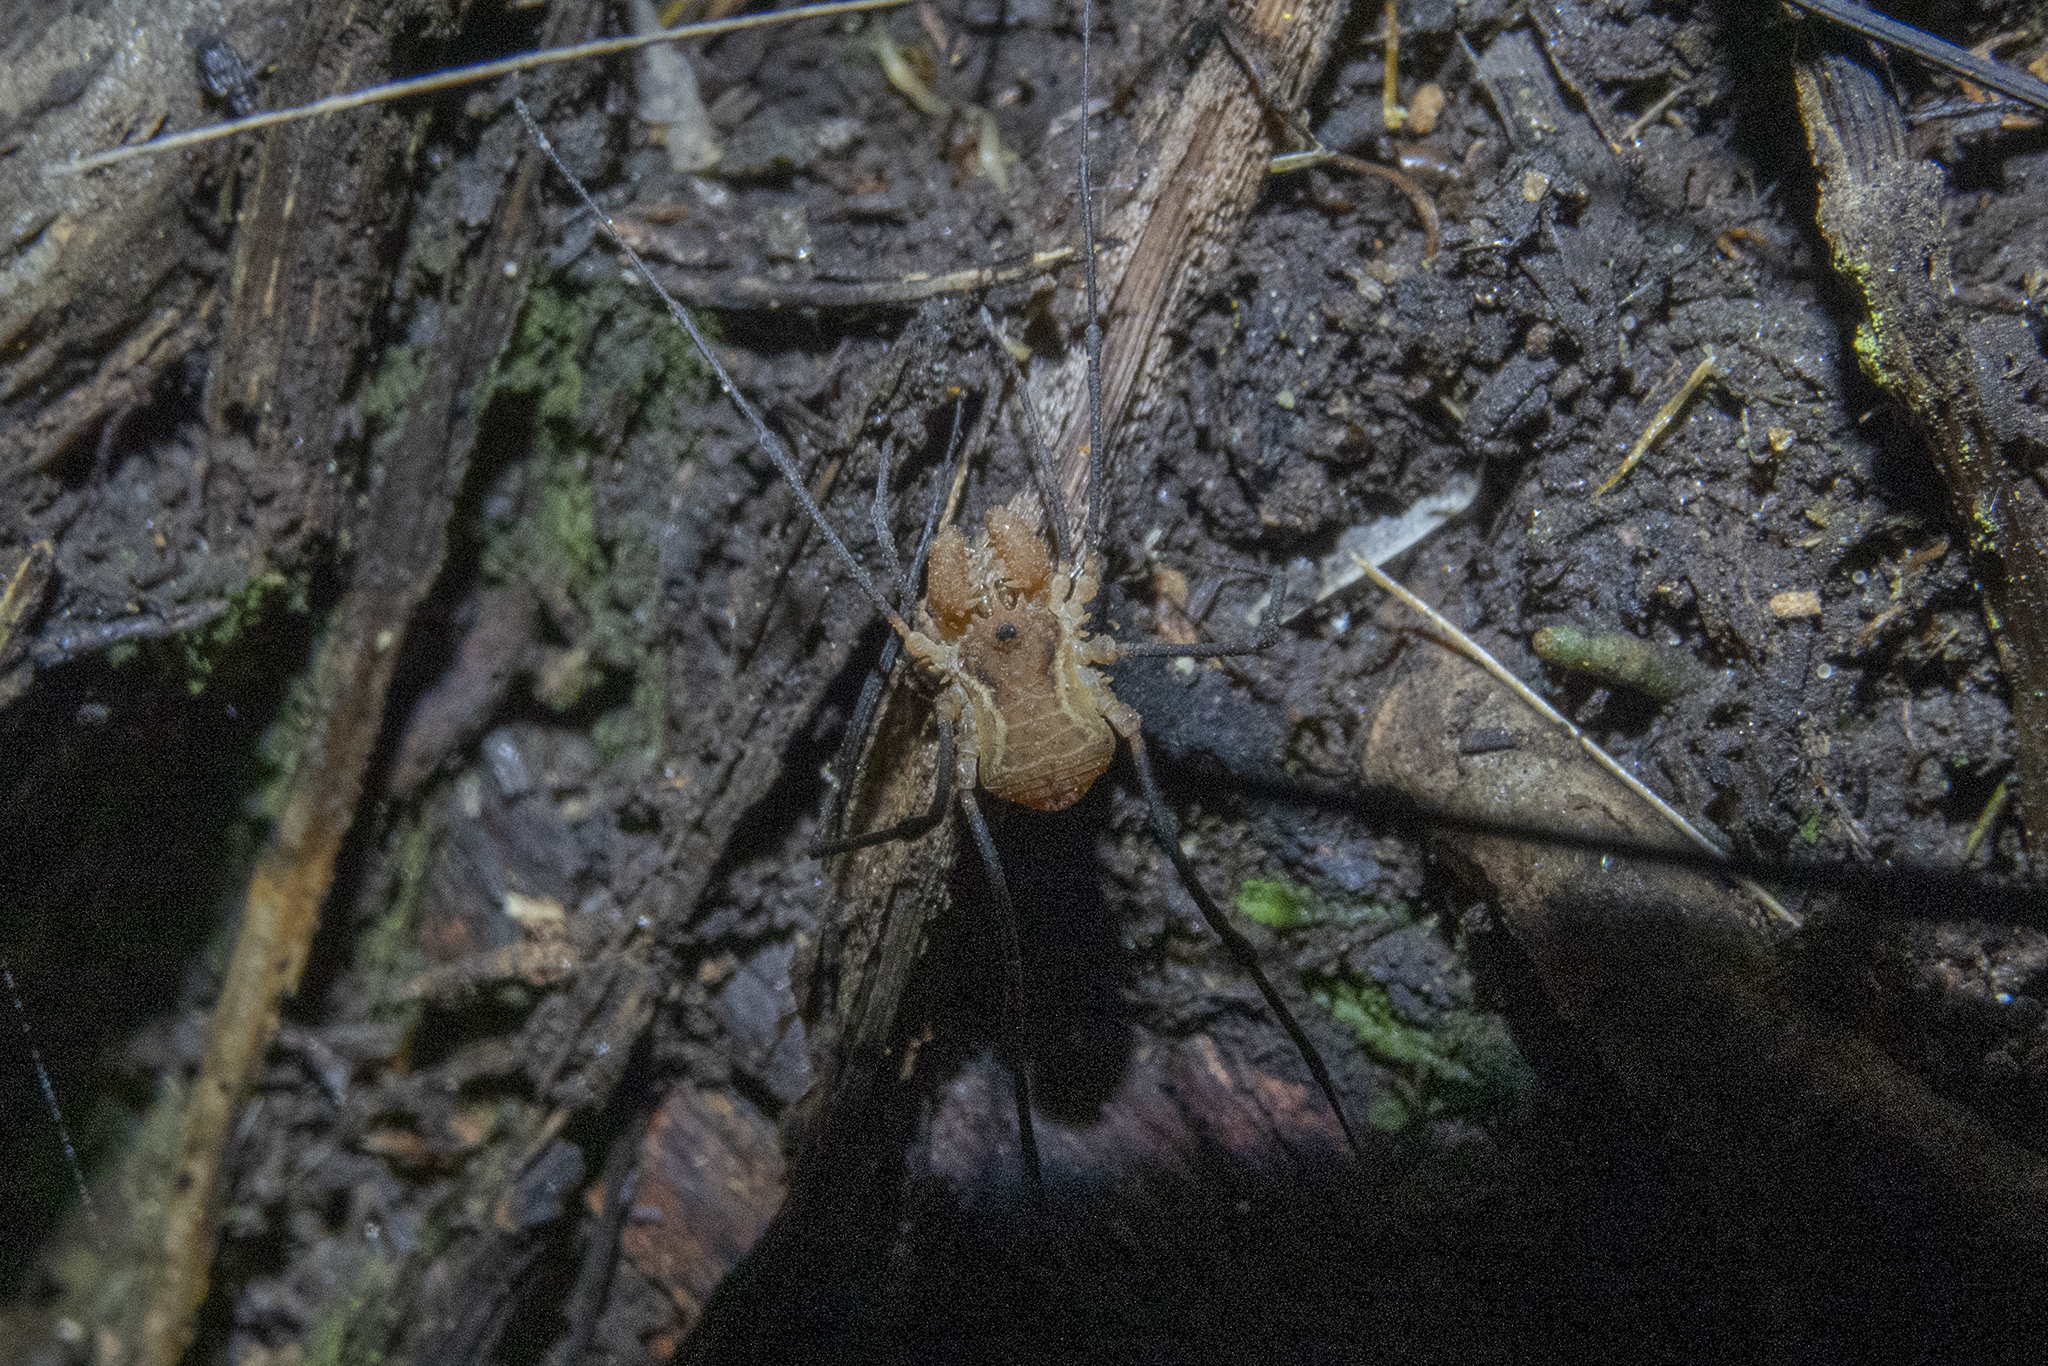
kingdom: Animalia
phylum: Arthropoda
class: Arachnida
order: Opiliones
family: Triaenonychidae
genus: Algidia
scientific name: Algidia interrupta
